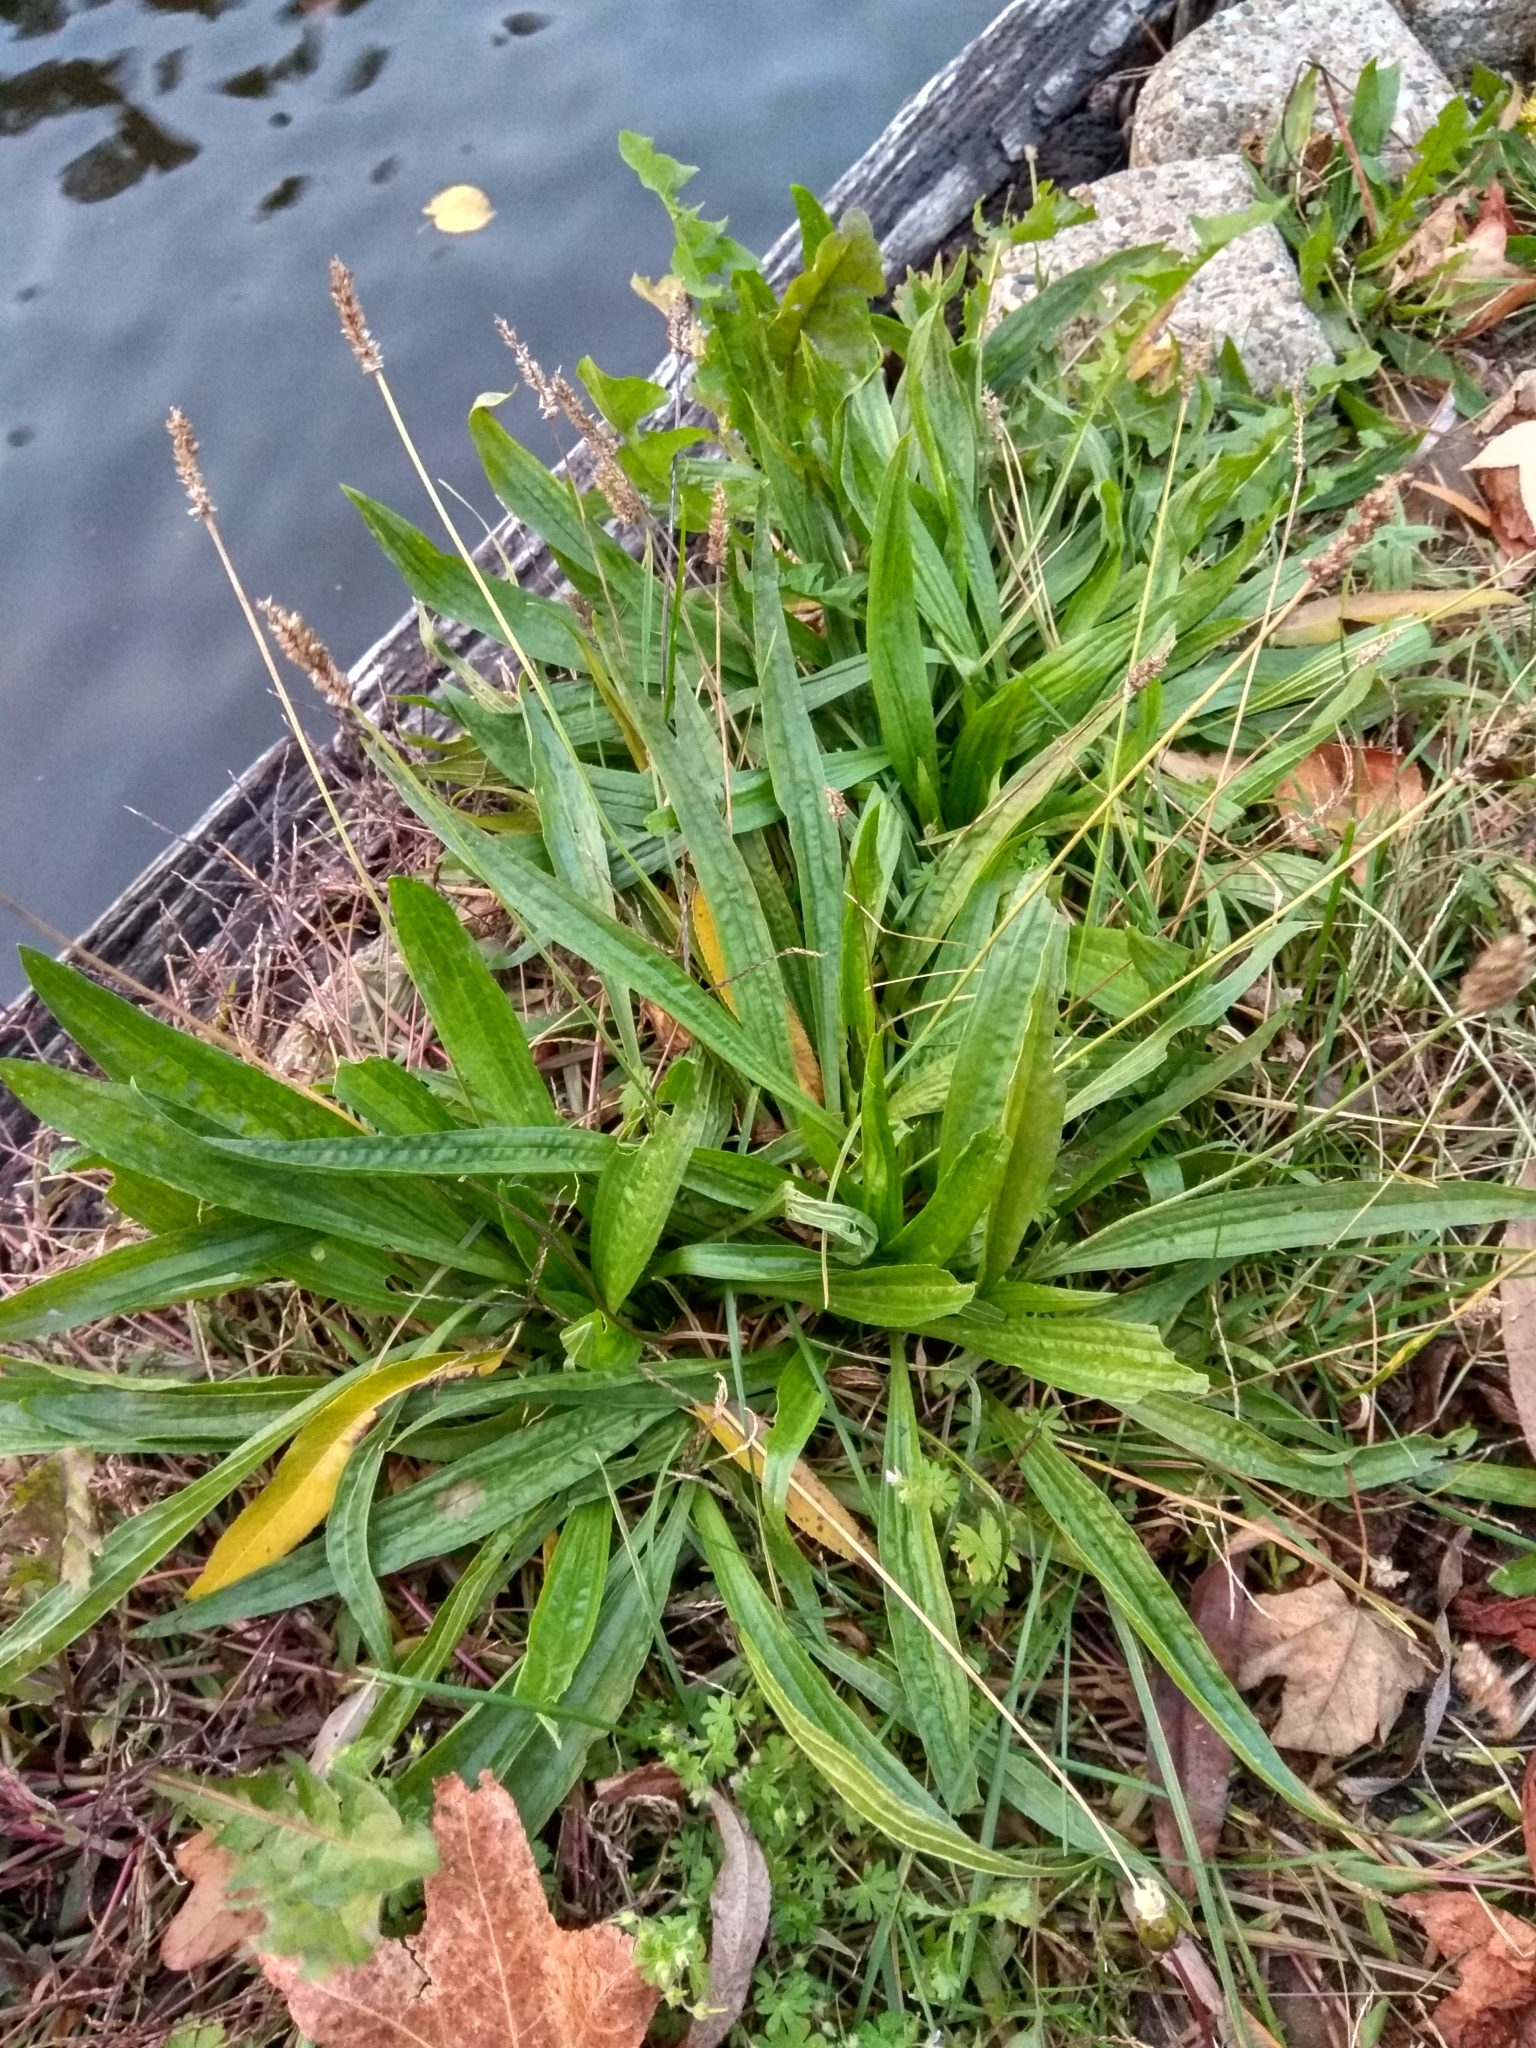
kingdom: Plantae
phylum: Tracheophyta
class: Magnoliopsida
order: Lamiales
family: Plantaginaceae
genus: Plantago
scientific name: Plantago lanceolata
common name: Ribwort plantain
